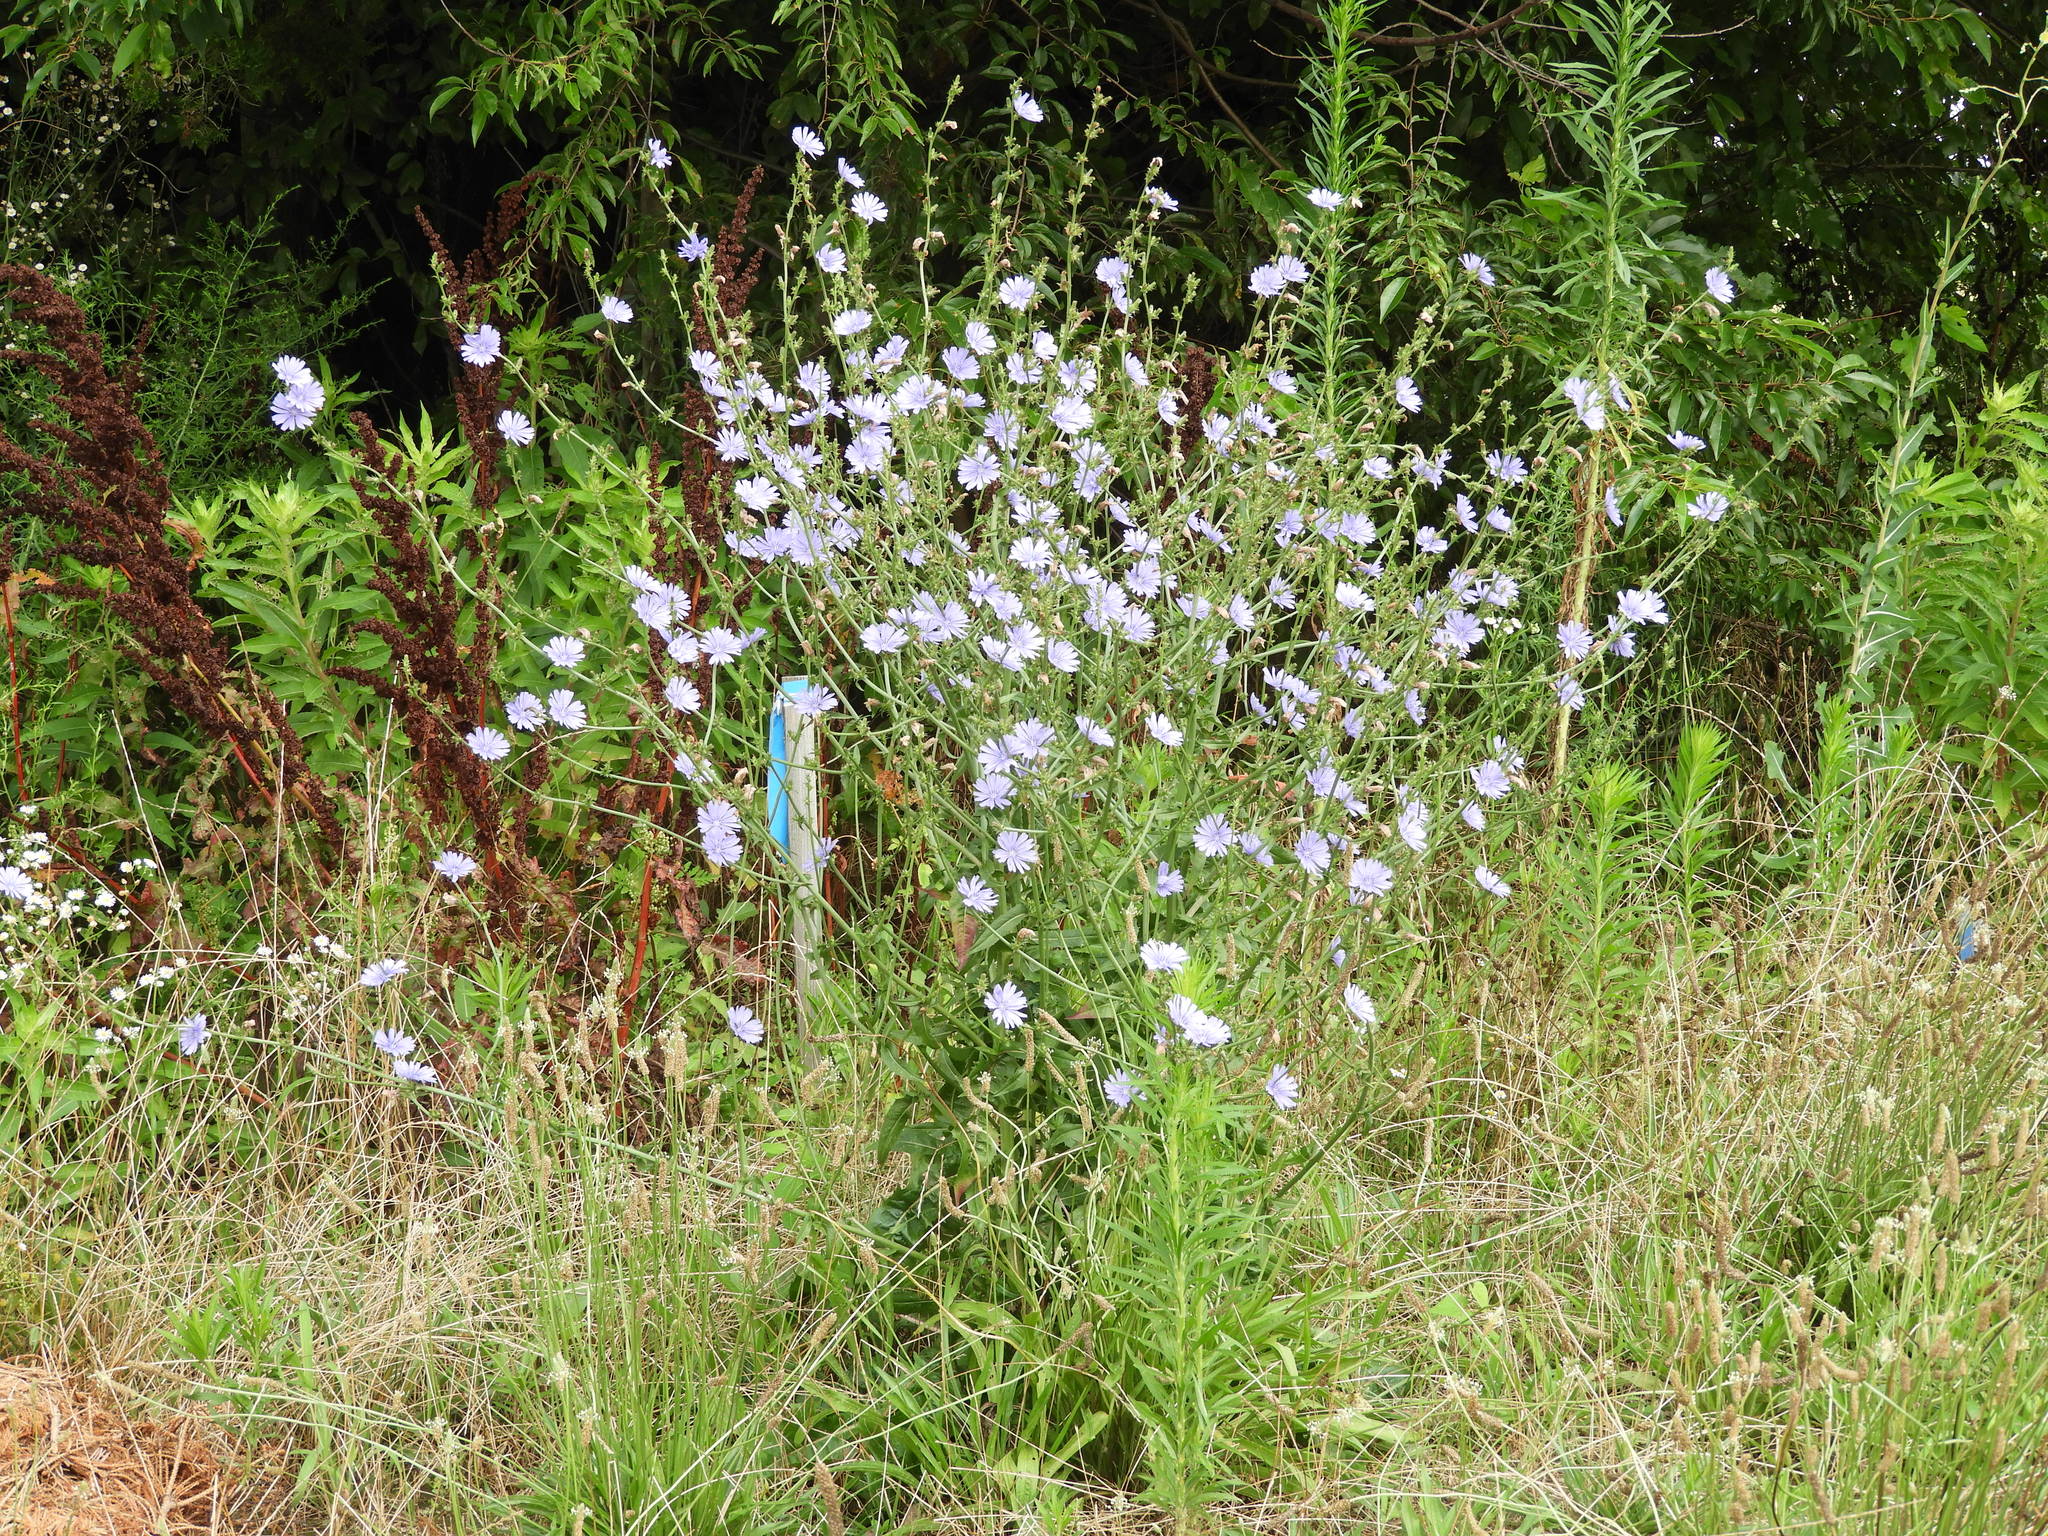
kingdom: Plantae
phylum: Tracheophyta
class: Magnoliopsida
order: Asterales
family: Asteraceae
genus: Cichorium
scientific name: Cichorium intybus
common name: Chicory
